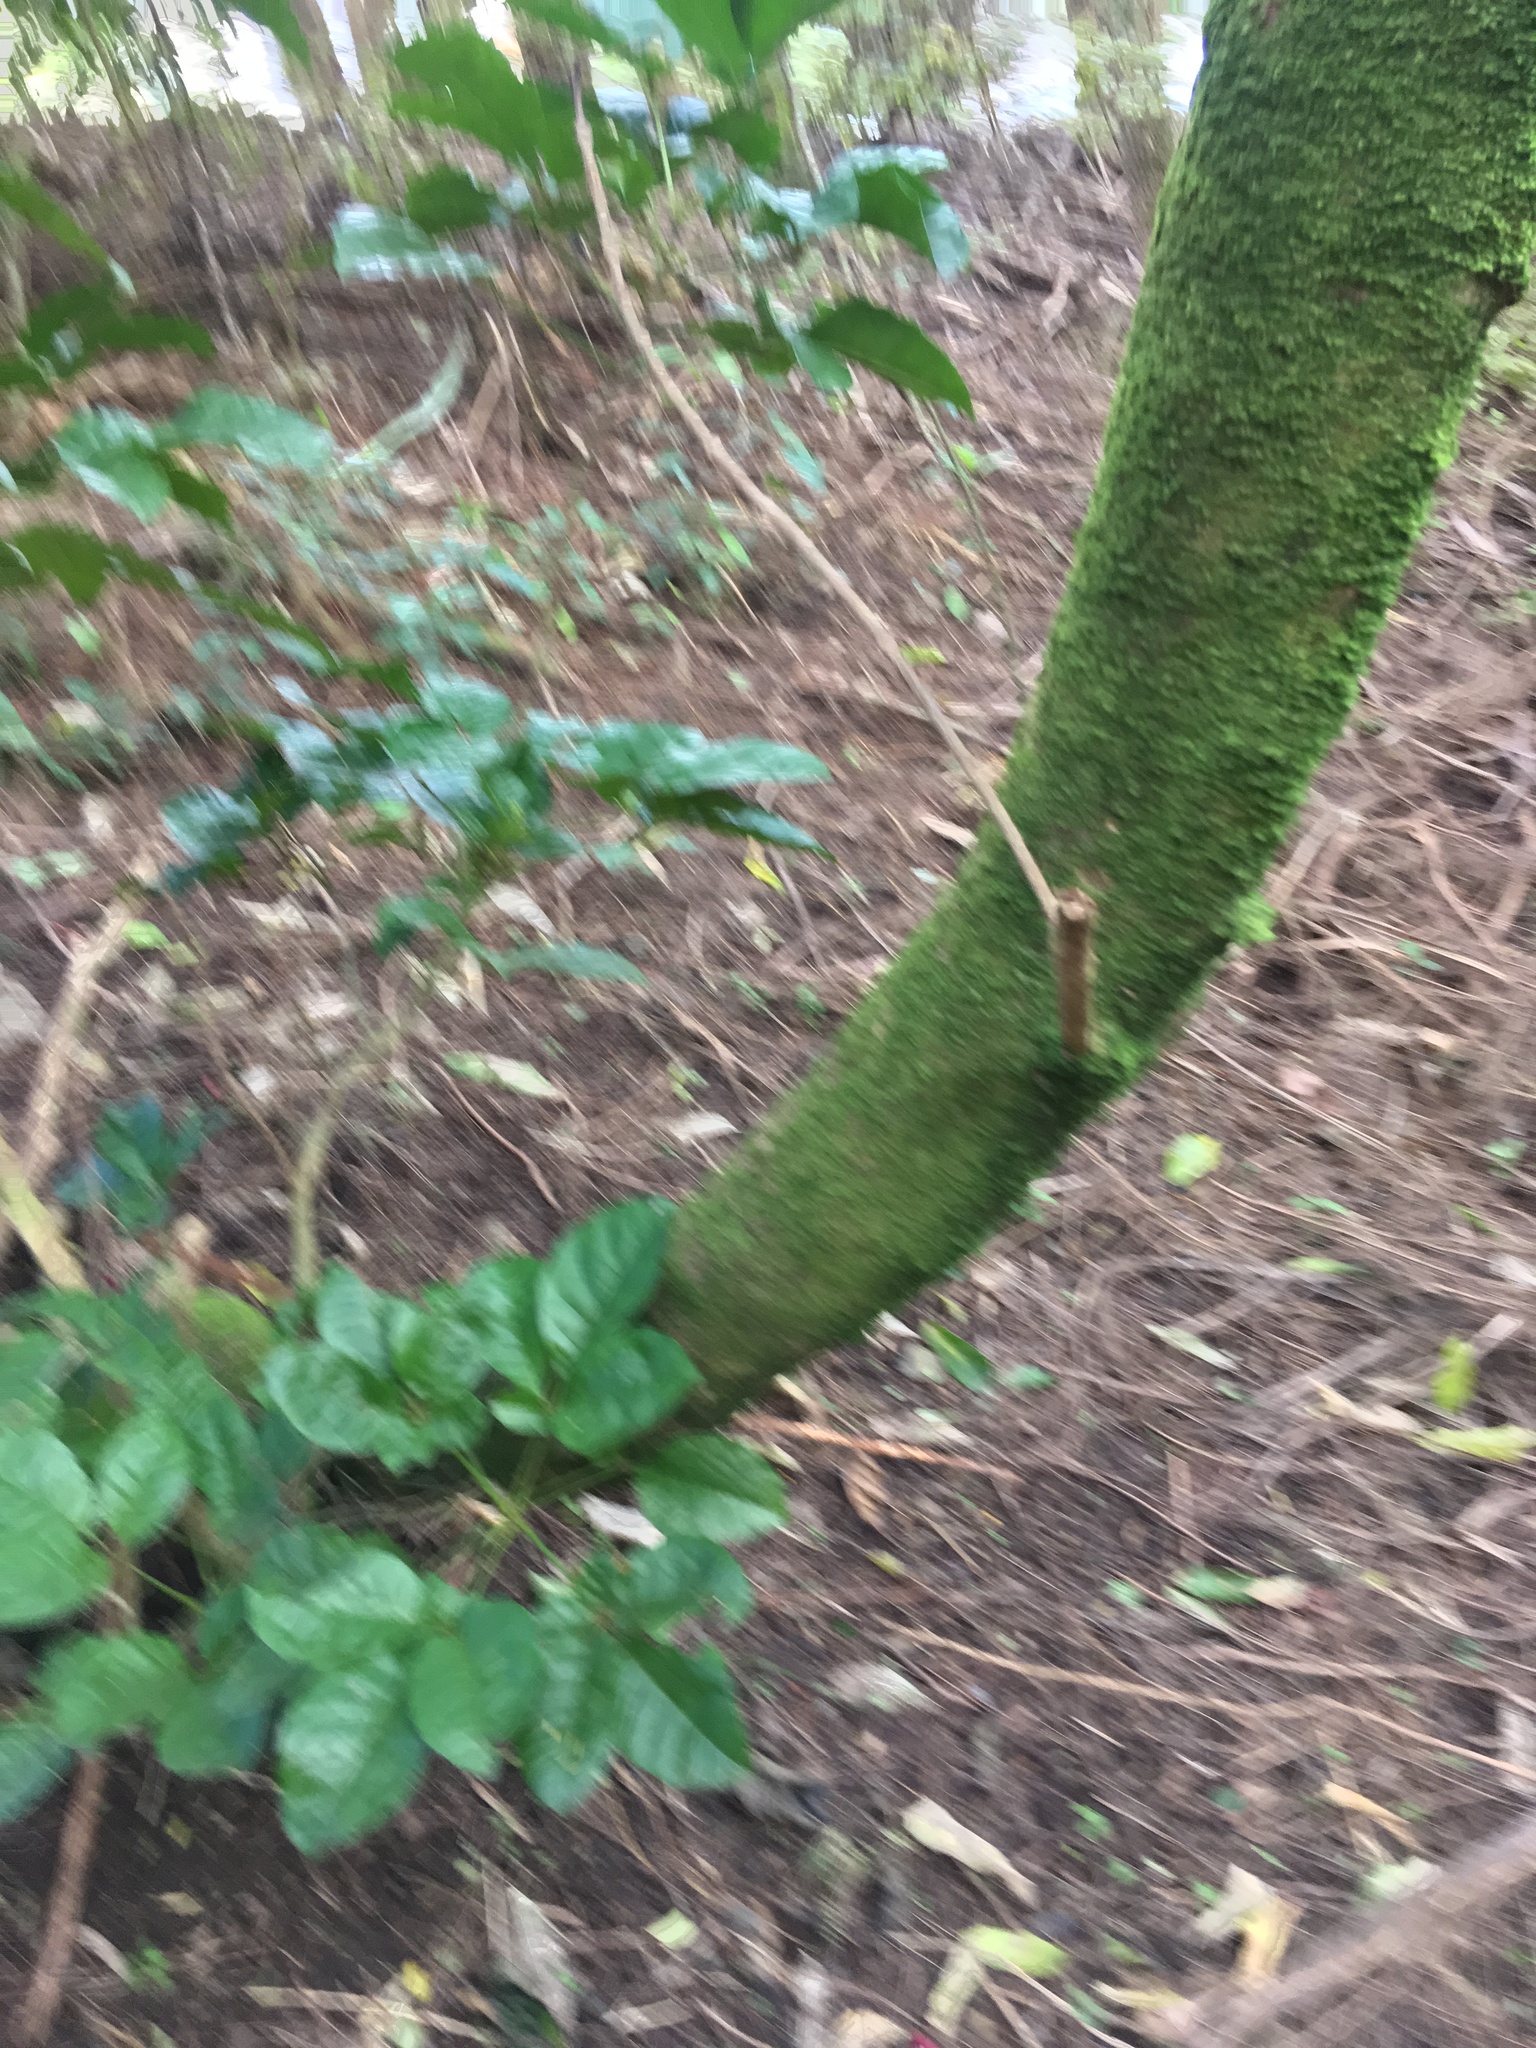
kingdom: Plantae
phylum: Tracheophyta
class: Magnoliopsida
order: Lamiales
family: Lamiaceae
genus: Vitex
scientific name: Vitex lucens
